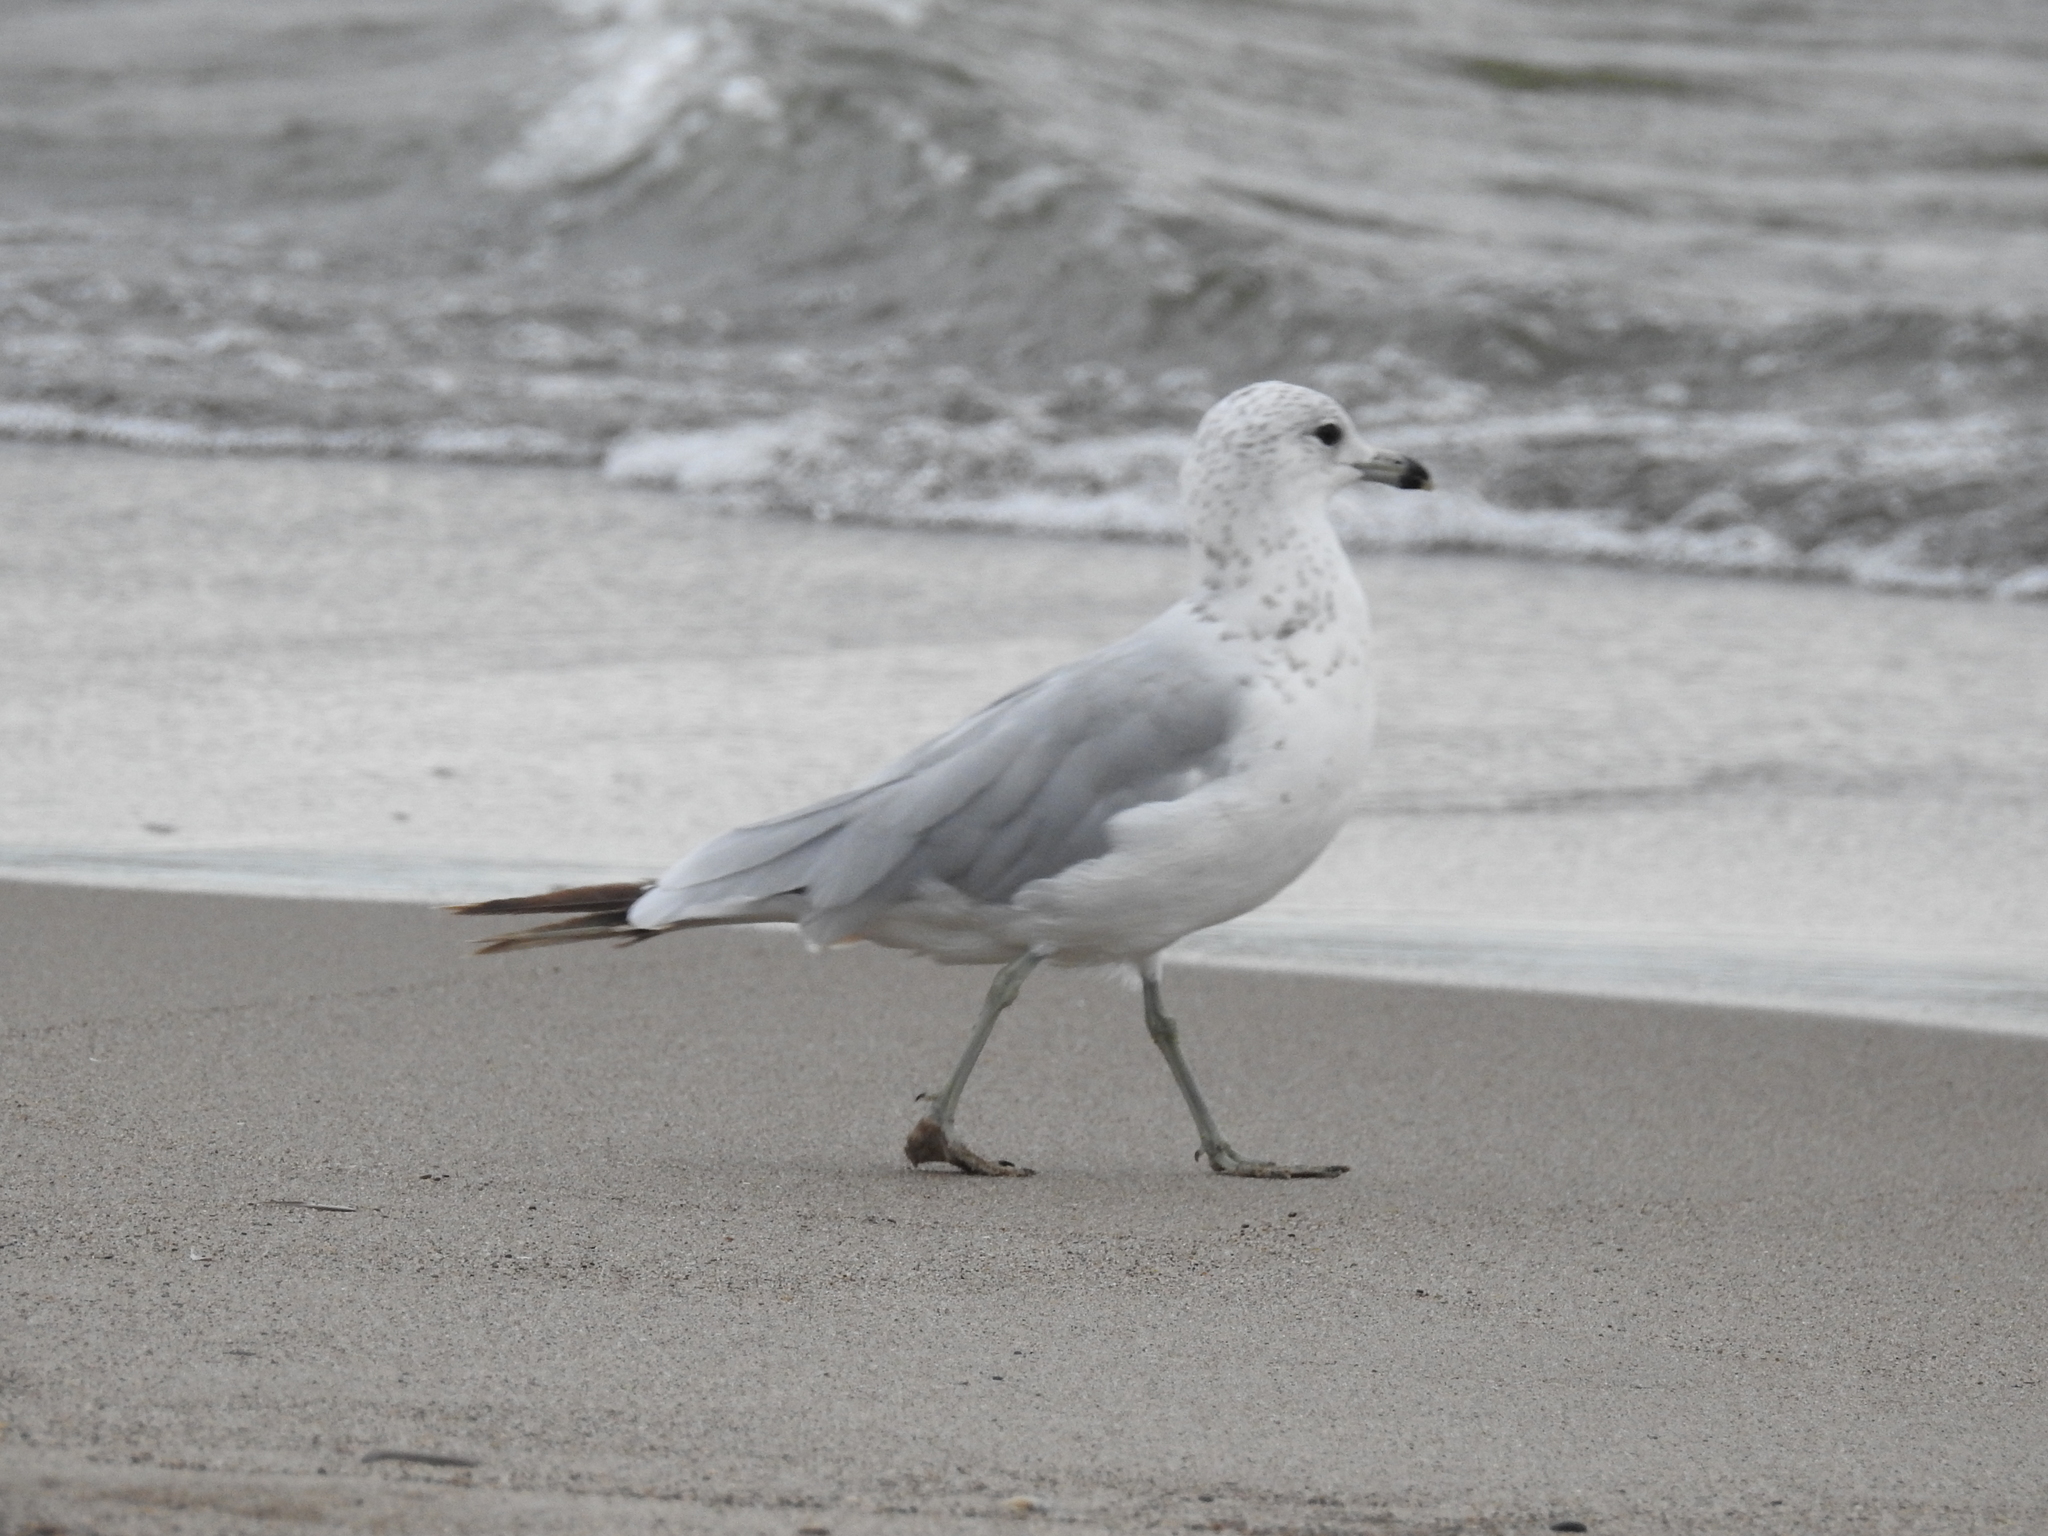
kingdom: Animalia
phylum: Chordata
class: Aves
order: Charadriiformes
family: Laridae
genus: Larus
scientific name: Larus delawarensis
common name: Ring-billed gull
